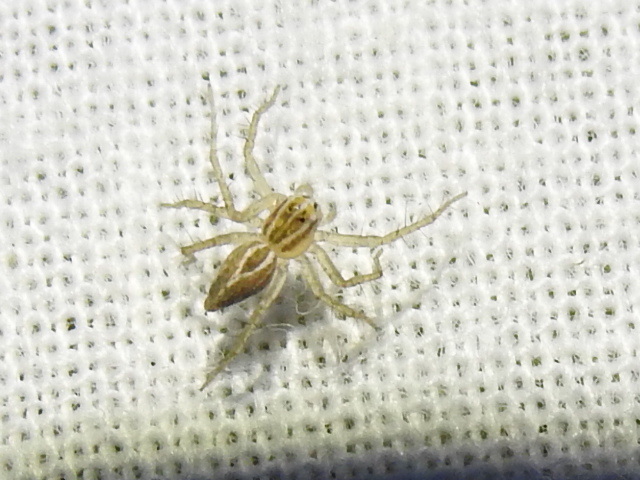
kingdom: Animalia
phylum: Arthropoda
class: Arachnida
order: Araneae
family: Oxyopidae
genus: Oxyopes
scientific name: Oxyopes salticus
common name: Lynx spiders
